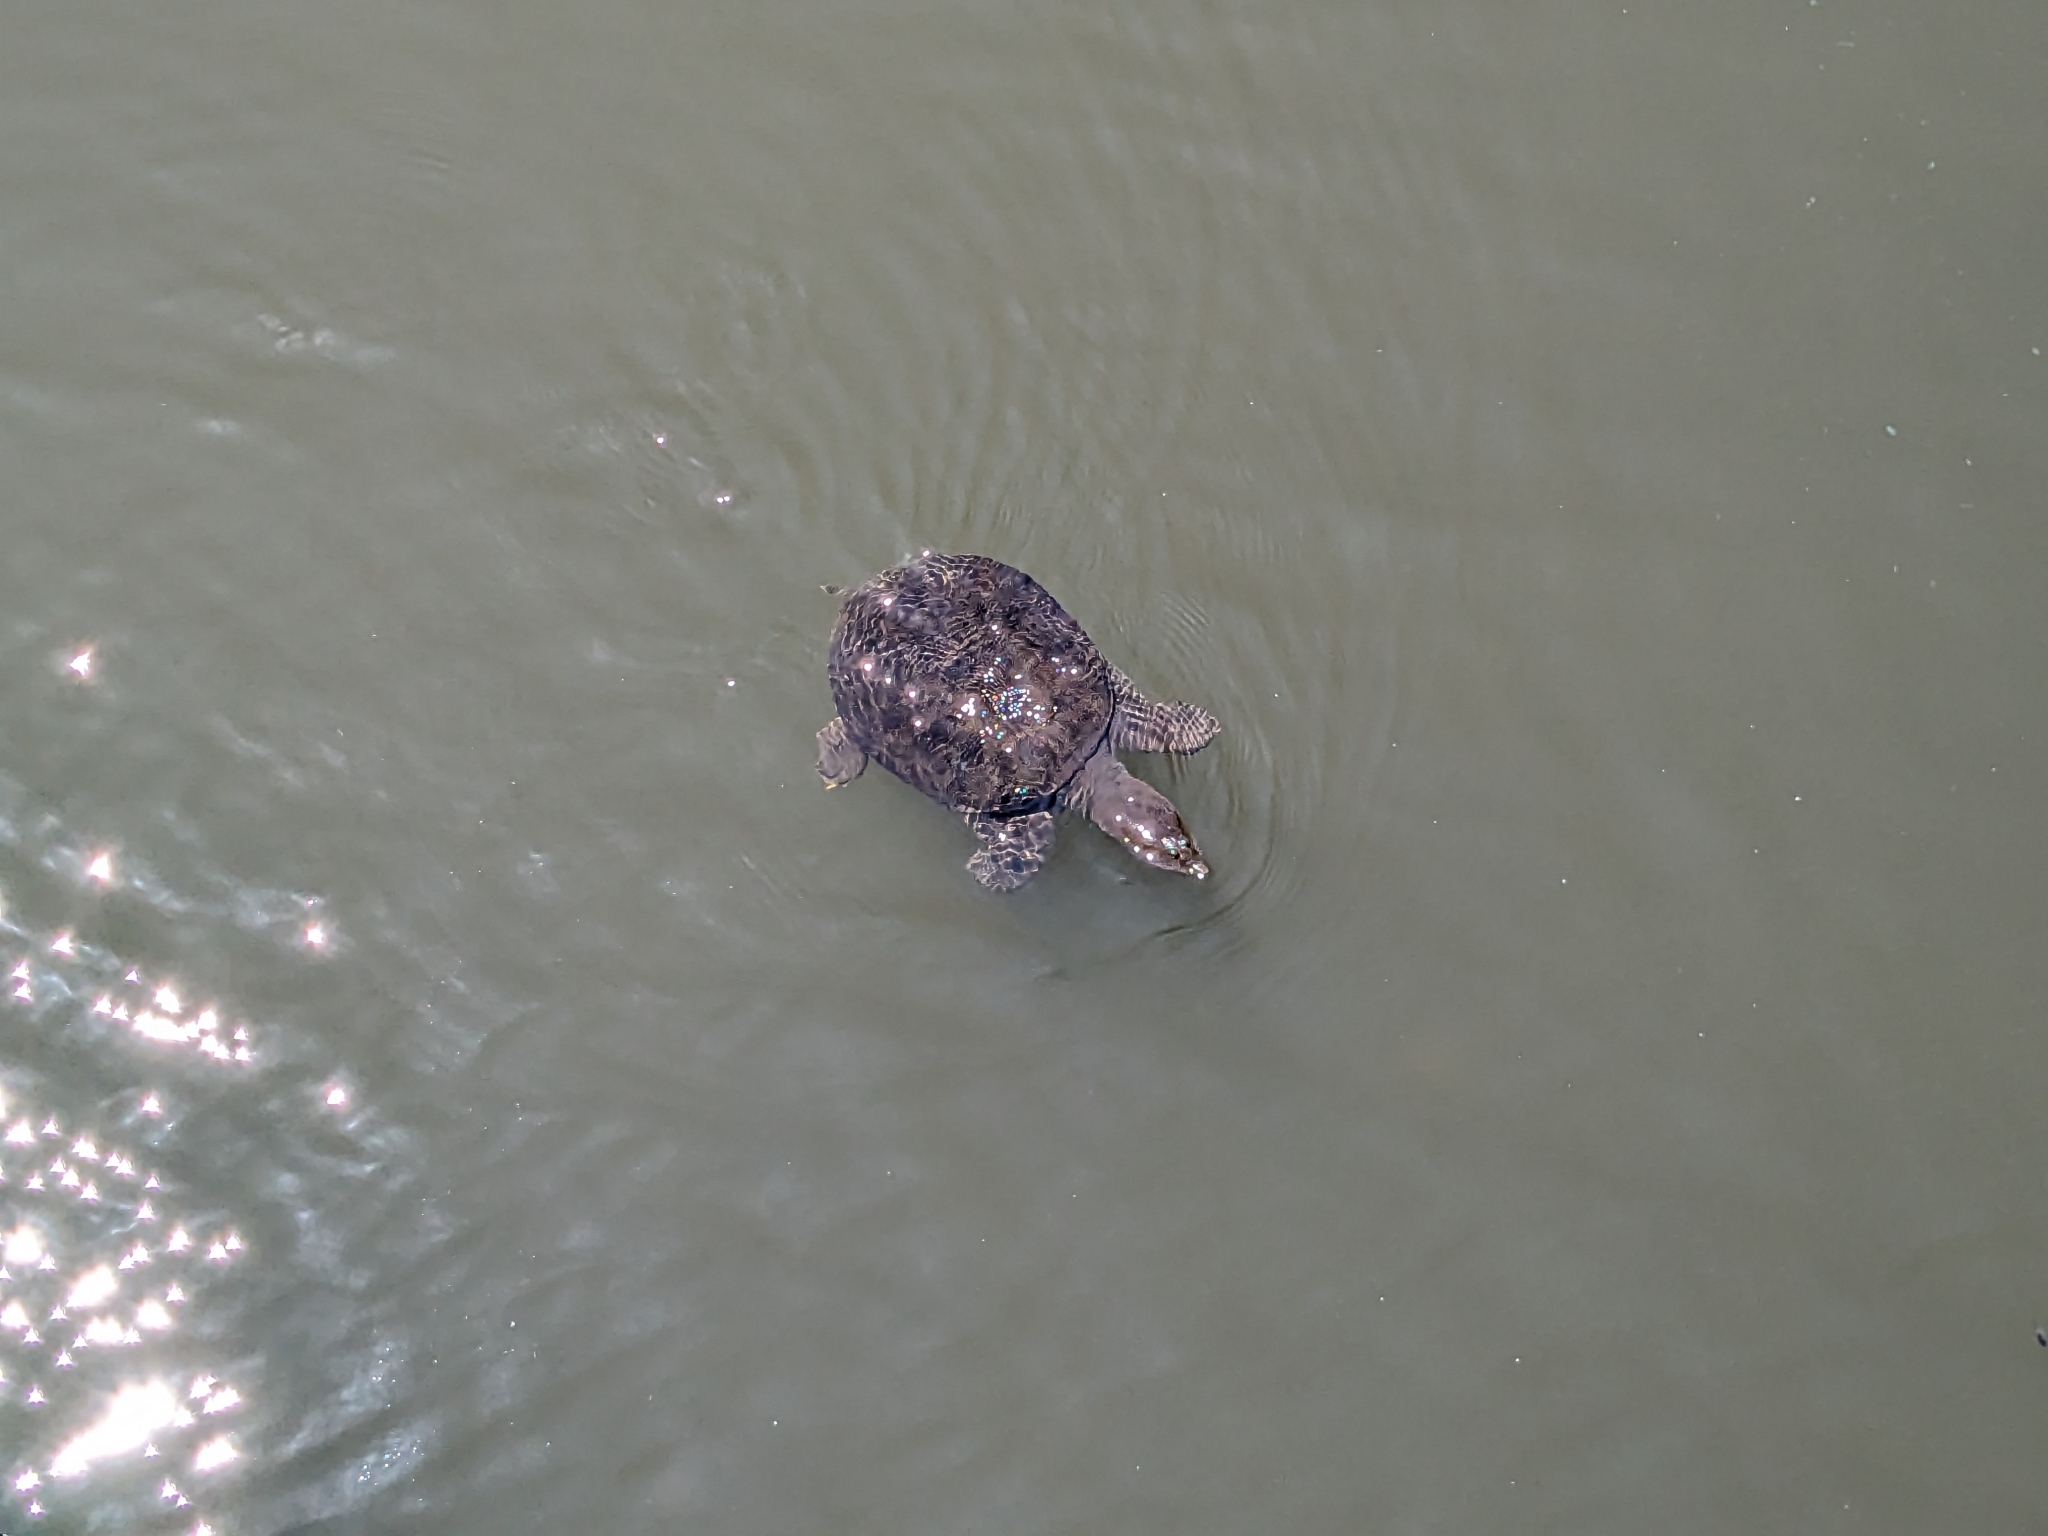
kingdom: Animalia
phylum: Chordata
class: Testudines
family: Trionychidae
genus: Pelodiscus
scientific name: Pelodiscus sinensis
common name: Chinese softshell turtle
